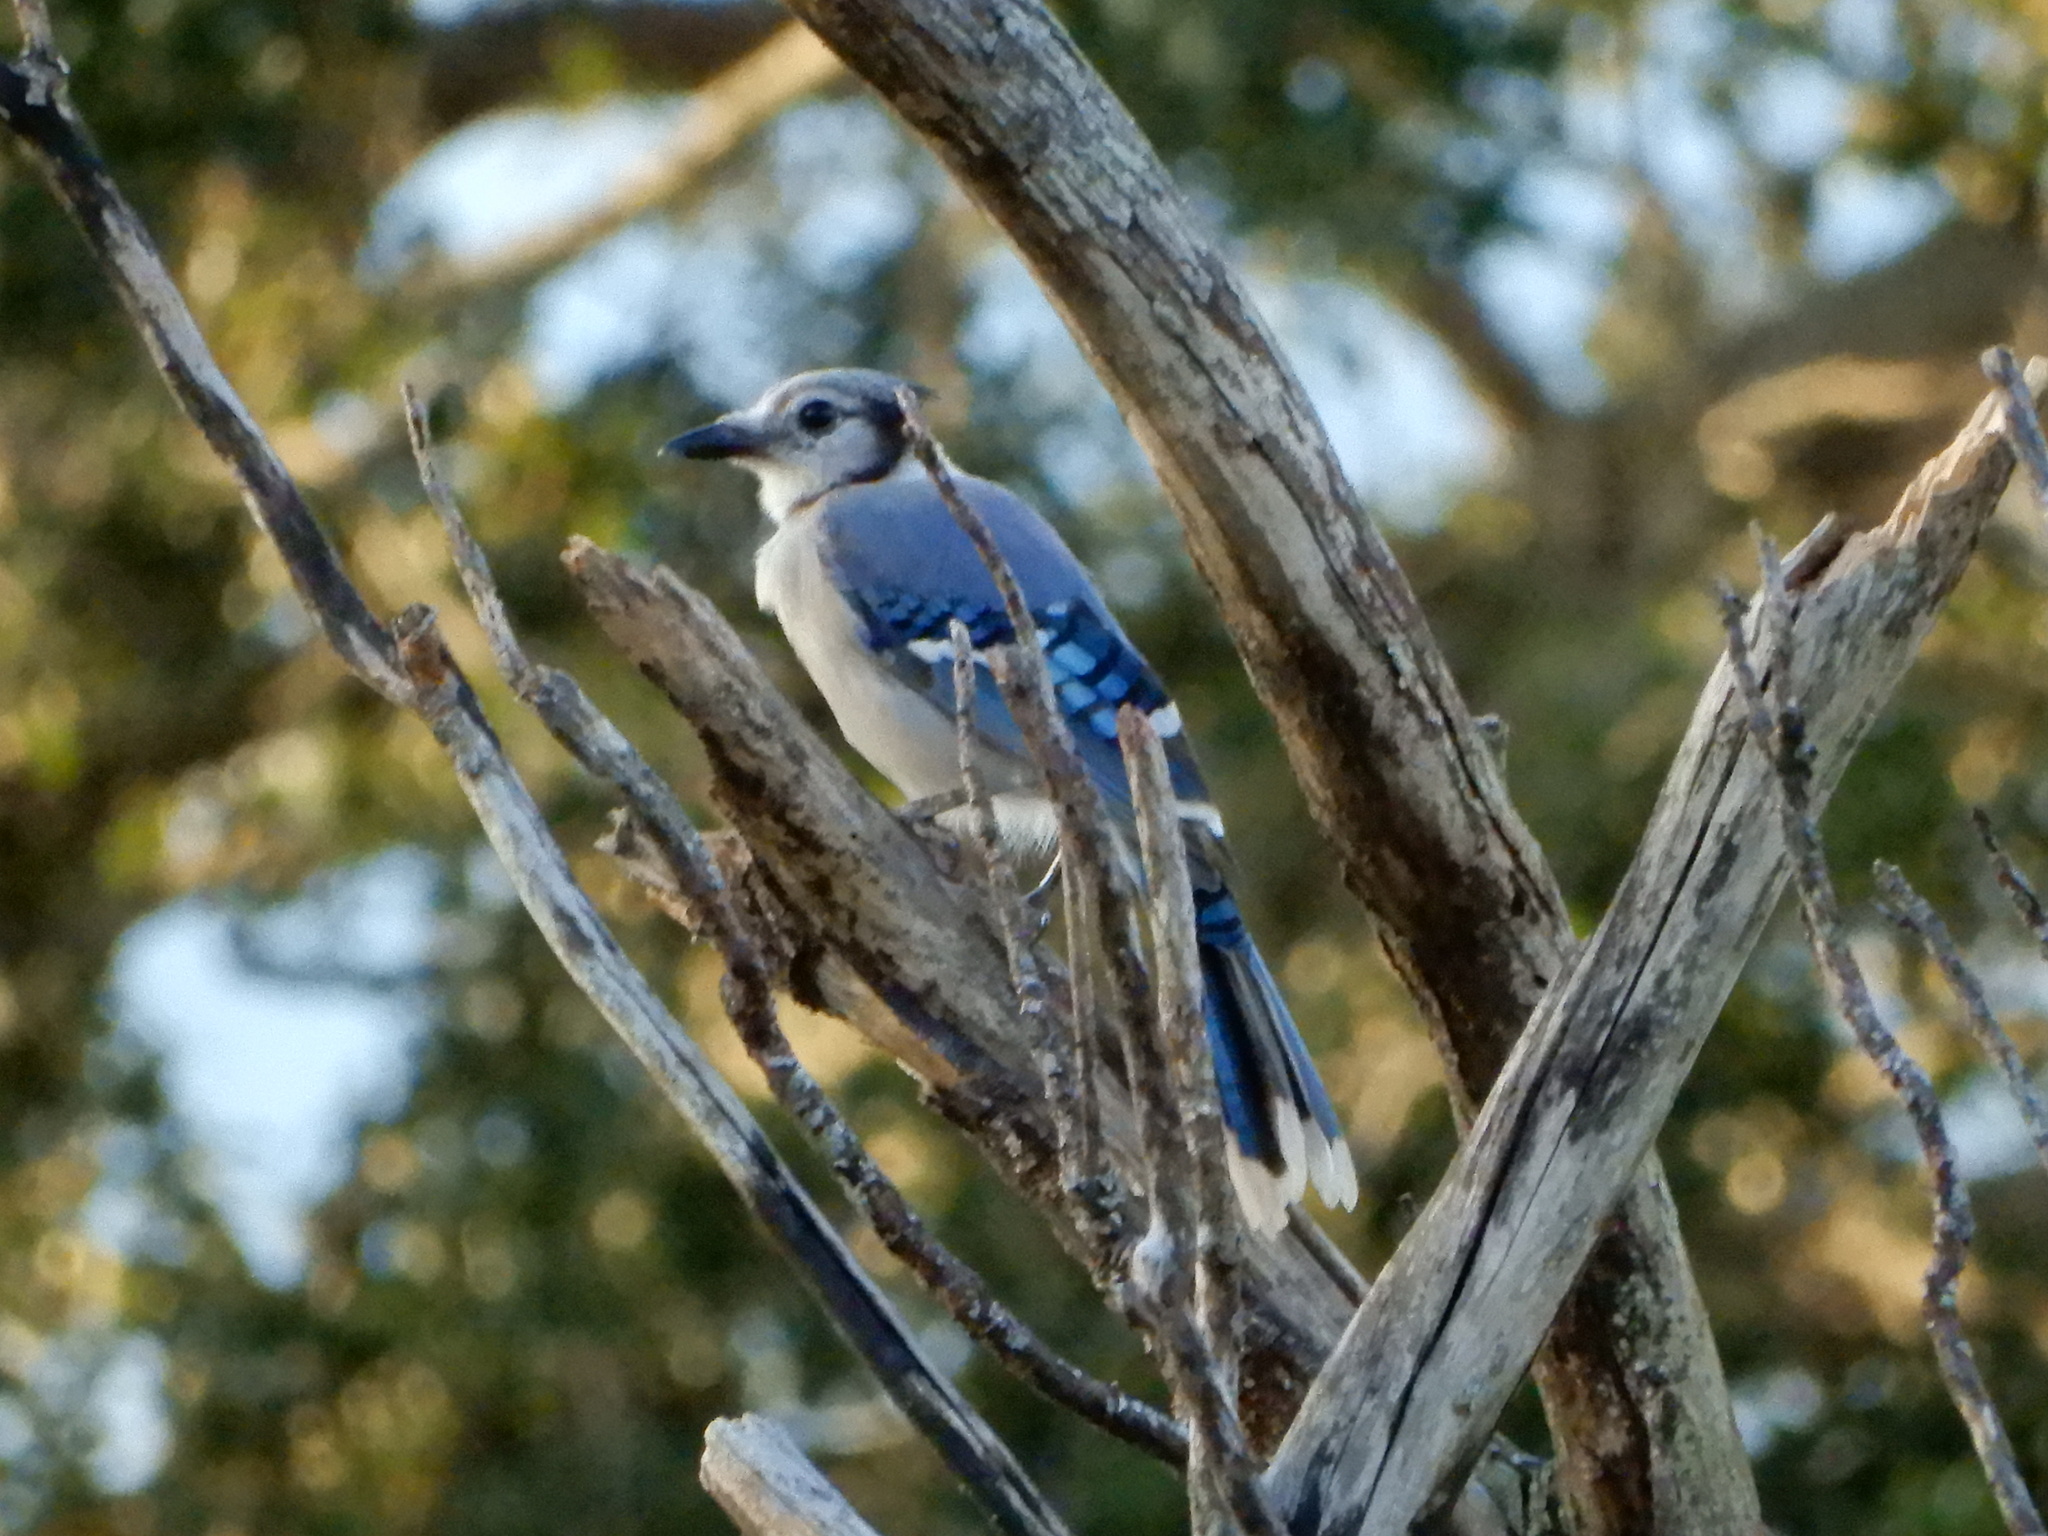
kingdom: Animalia
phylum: Chordata
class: Aves
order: Passeriformes
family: Corvidae
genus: Cyanocitta
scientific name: Cyanocitta cristata
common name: Blue jay
